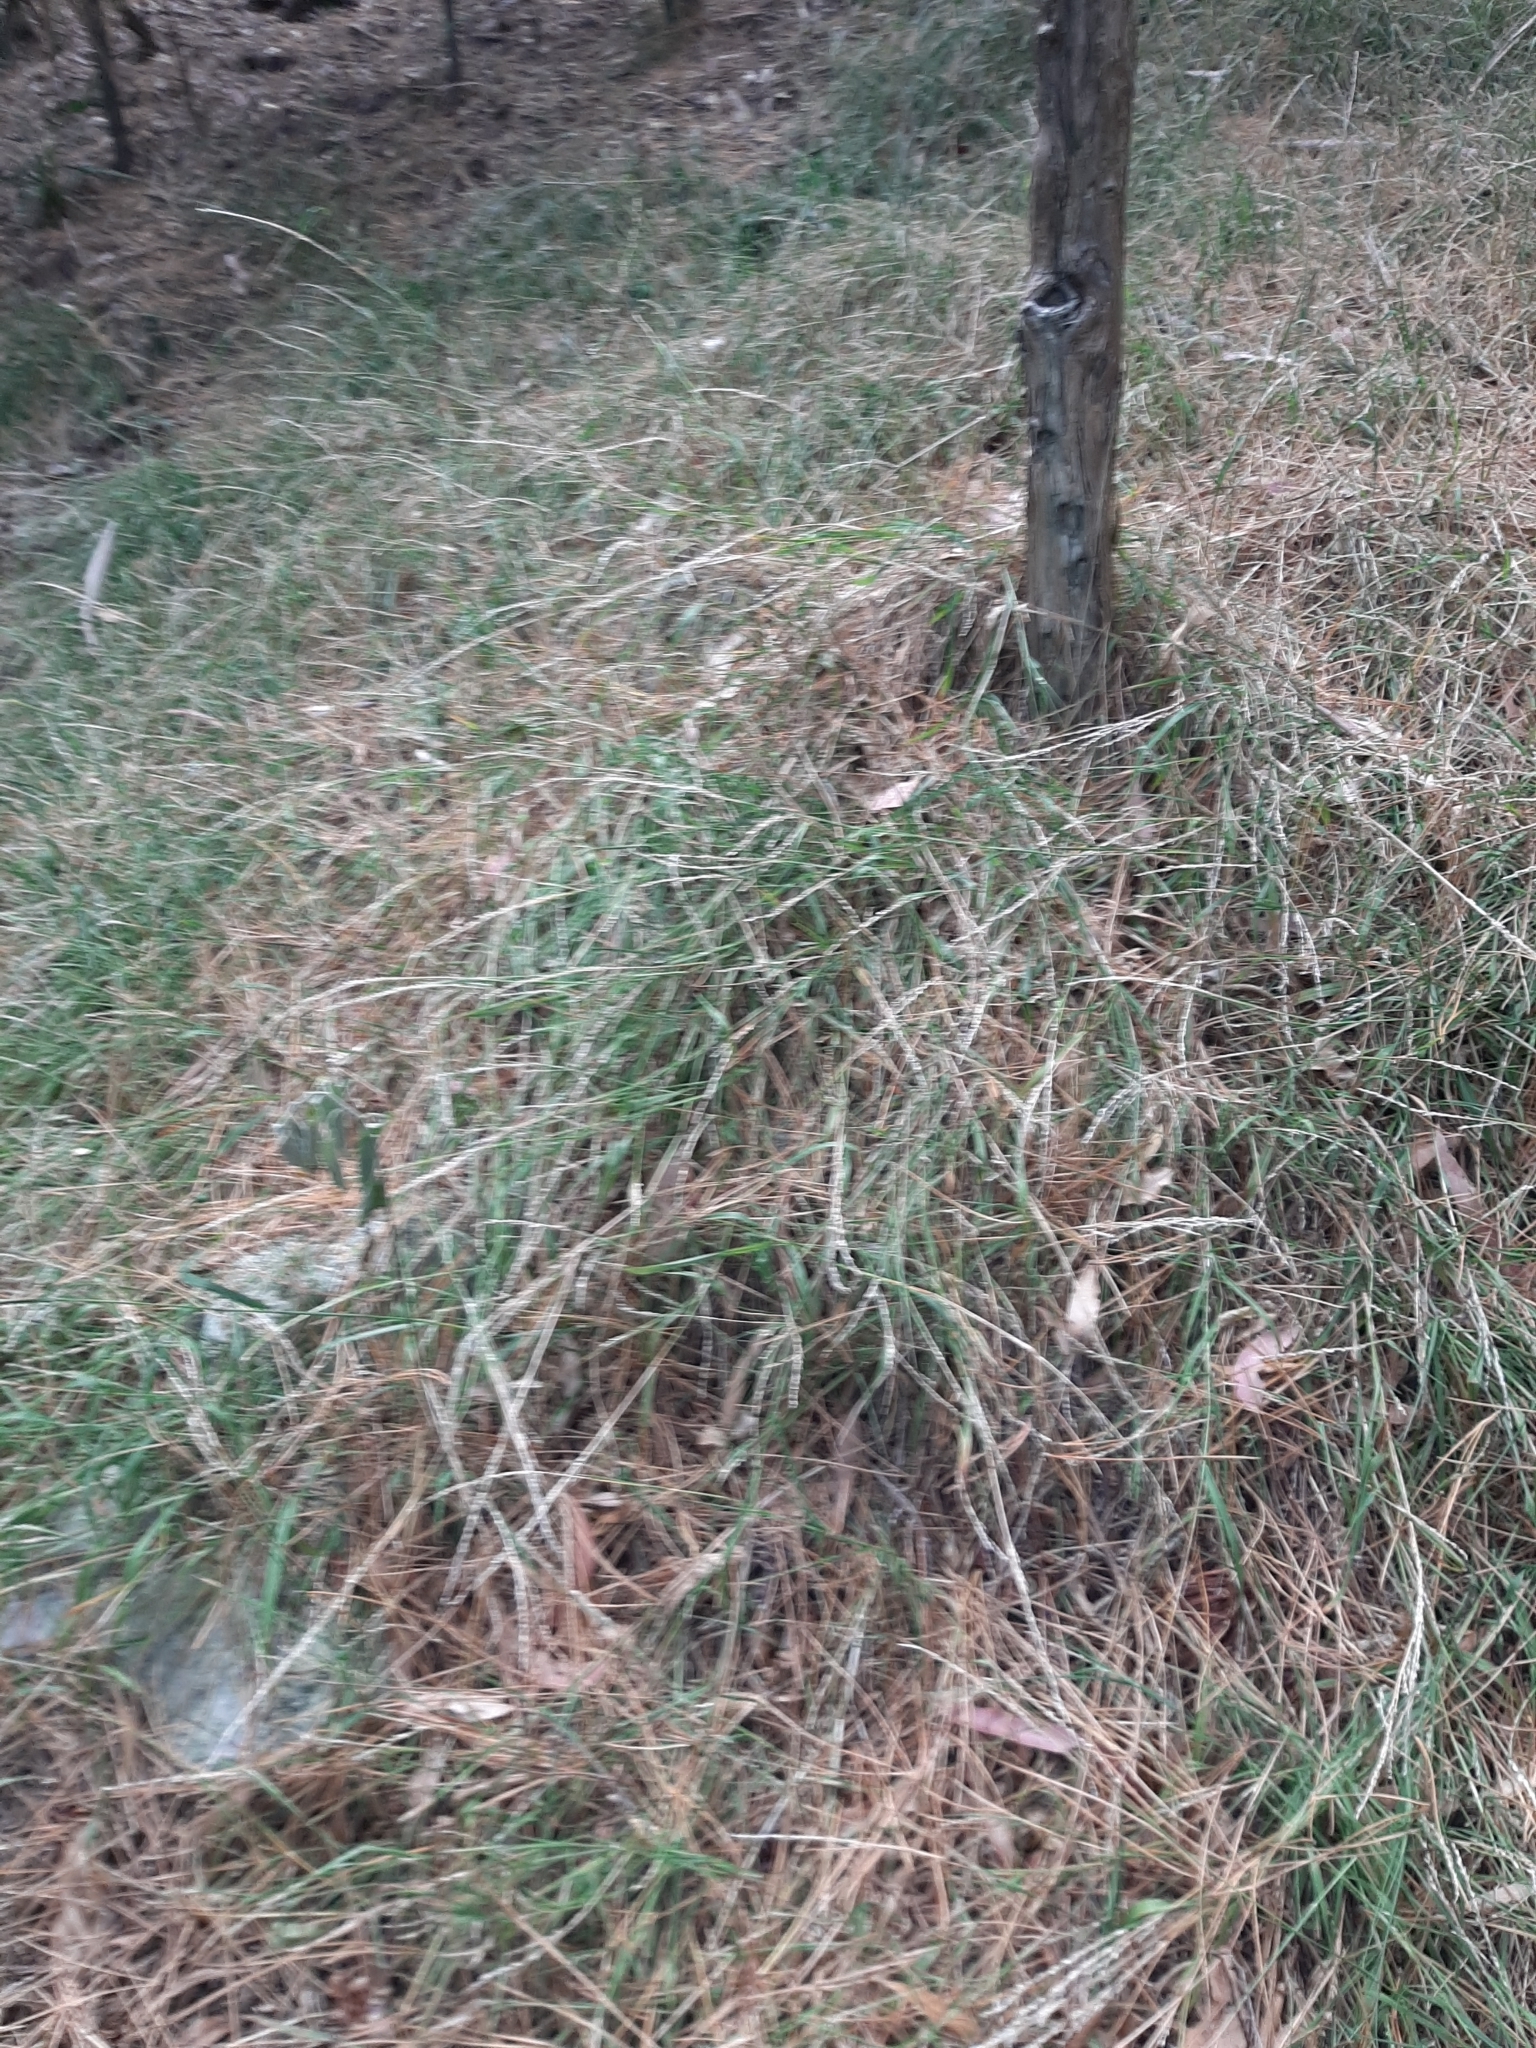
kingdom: Plantae
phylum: Tracheophyta
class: Liliopsida
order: Poales
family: Poaceae
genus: Ehrharta
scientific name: Ehrharta erecta
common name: Panic veldtgrass
